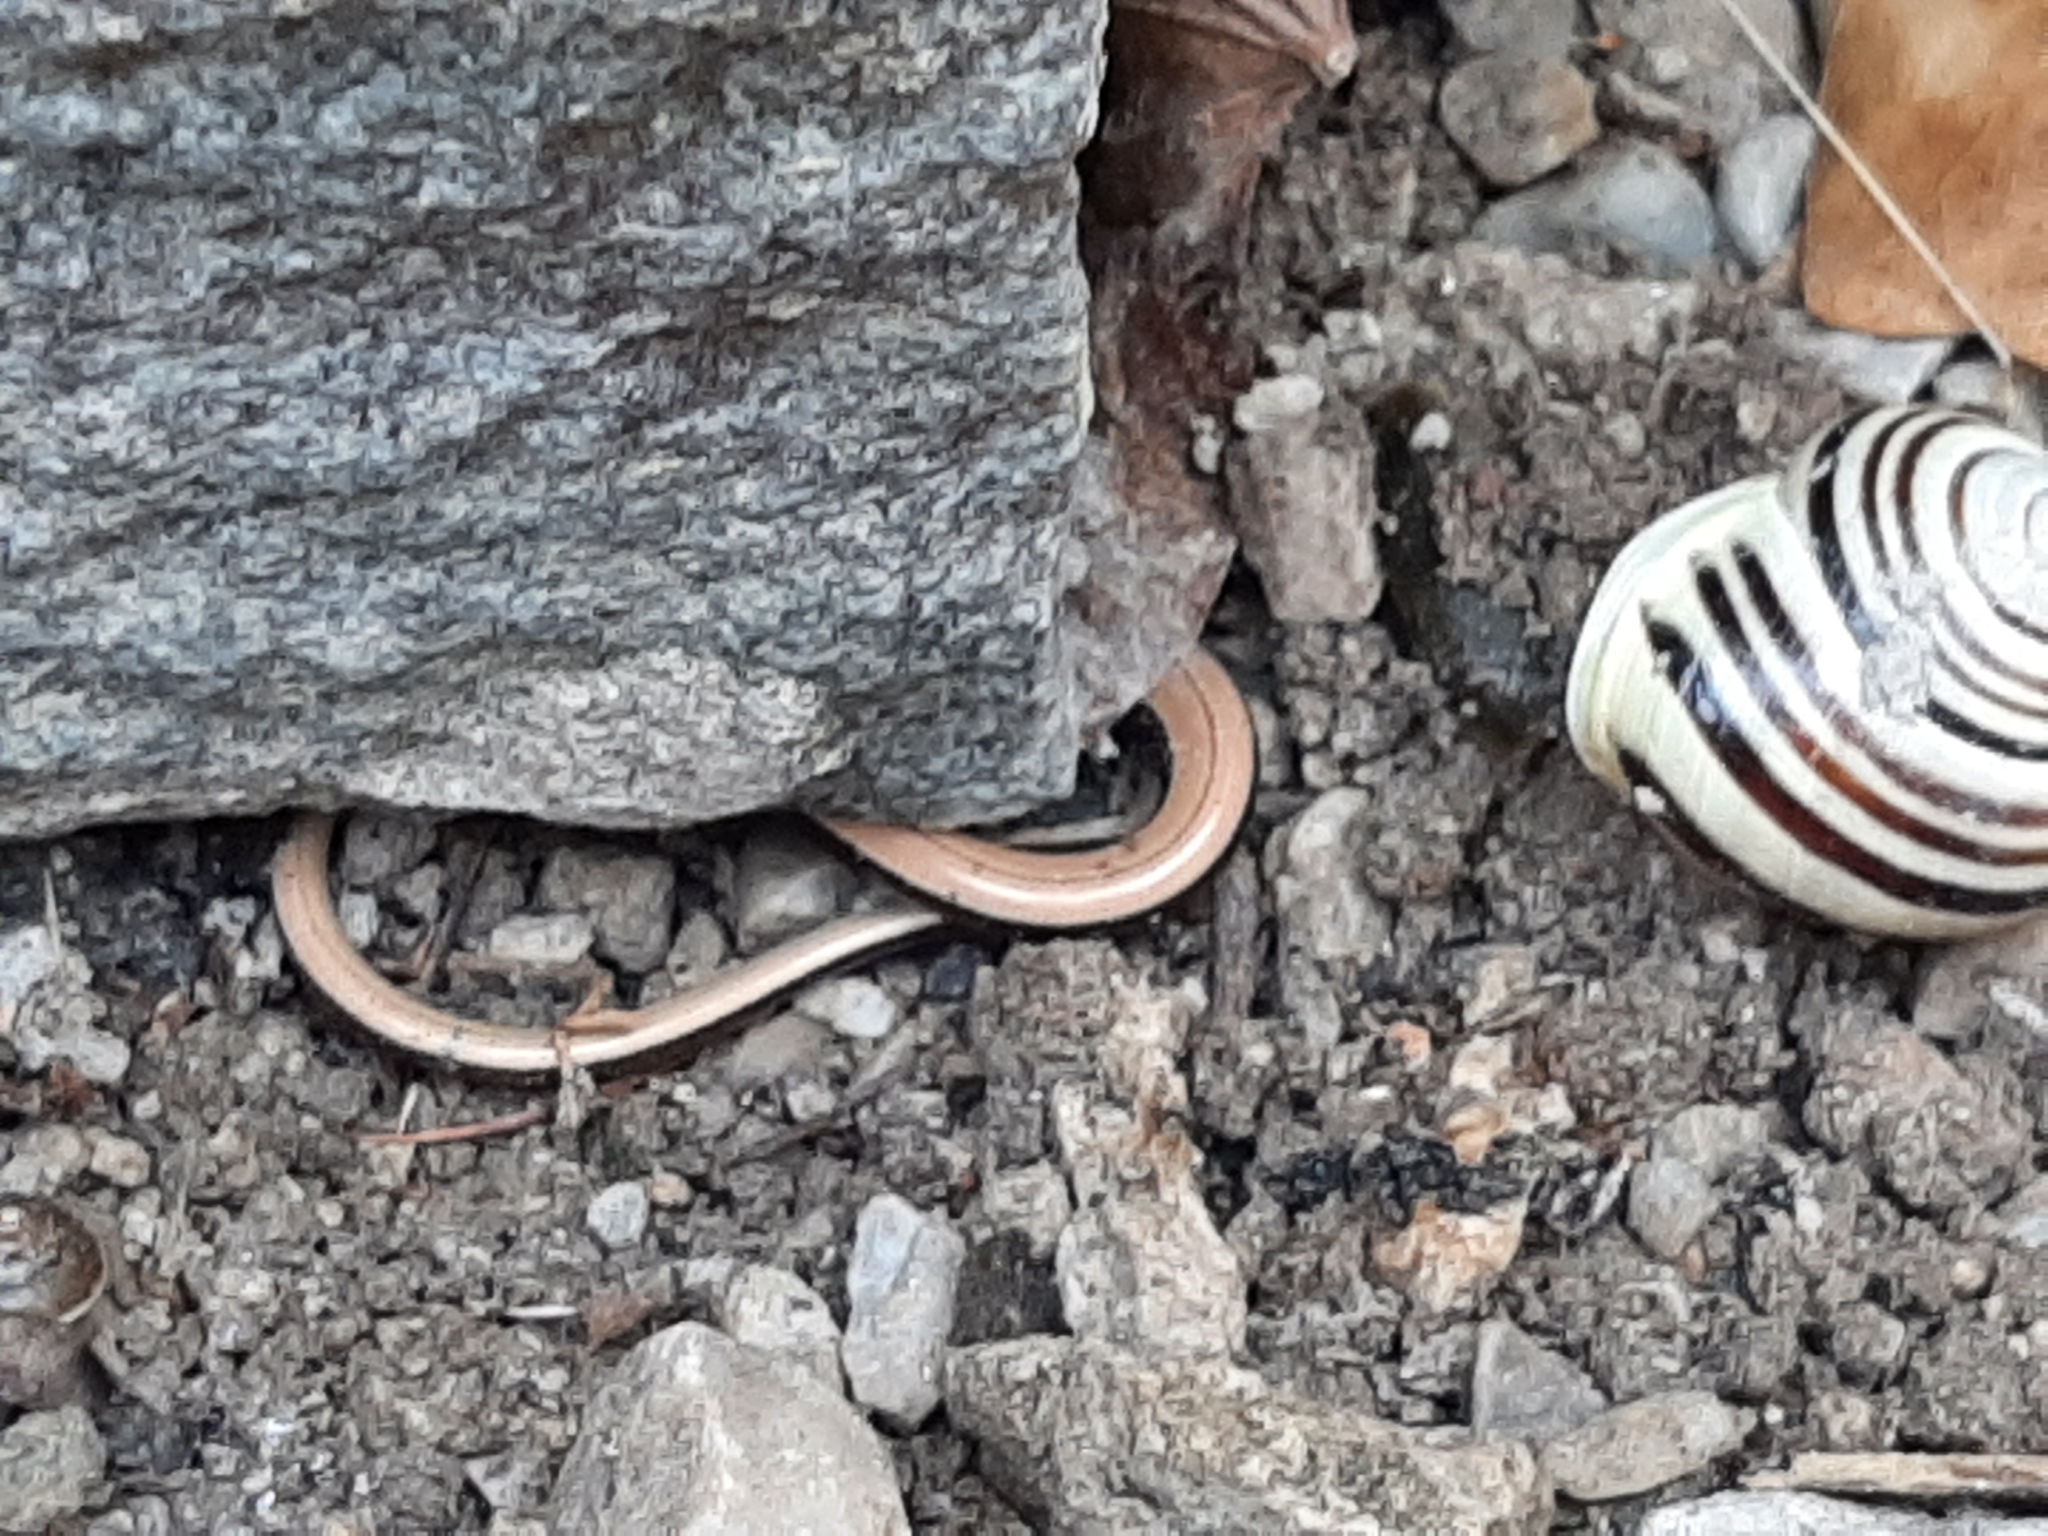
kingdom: Animalia
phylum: Chordata
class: Squamata
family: Anguidae
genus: Anguis
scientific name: Anguis fragilis
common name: Slow worm
